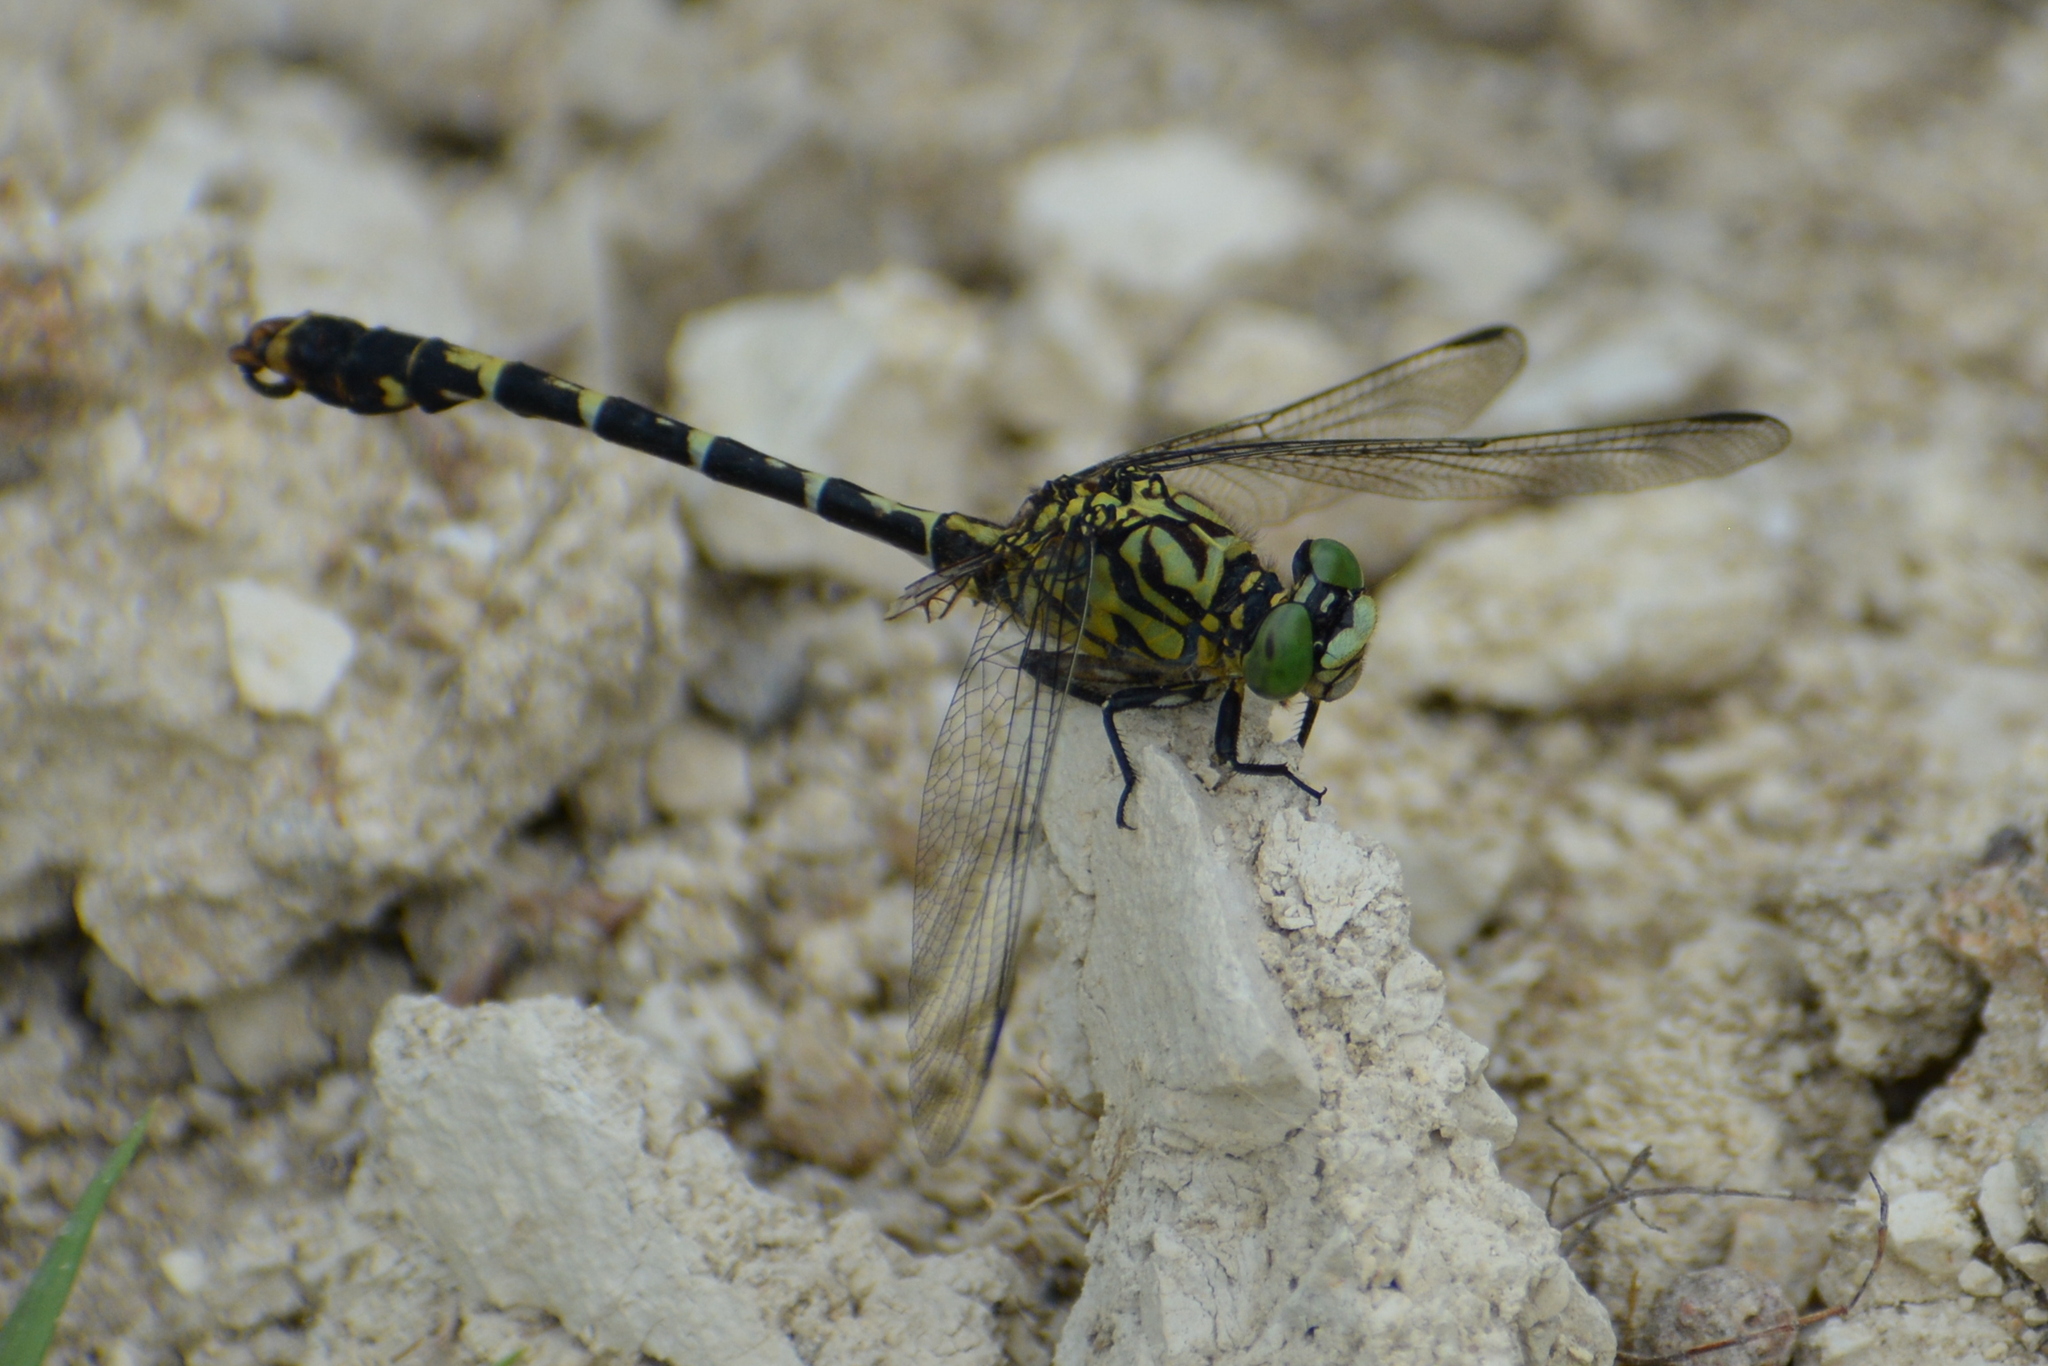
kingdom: Animalia
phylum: Arthropoda
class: Insecta
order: Odonata
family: Gomphidae
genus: Onychogomphus
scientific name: Onychogomphus forcipatus
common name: Small pincertail
